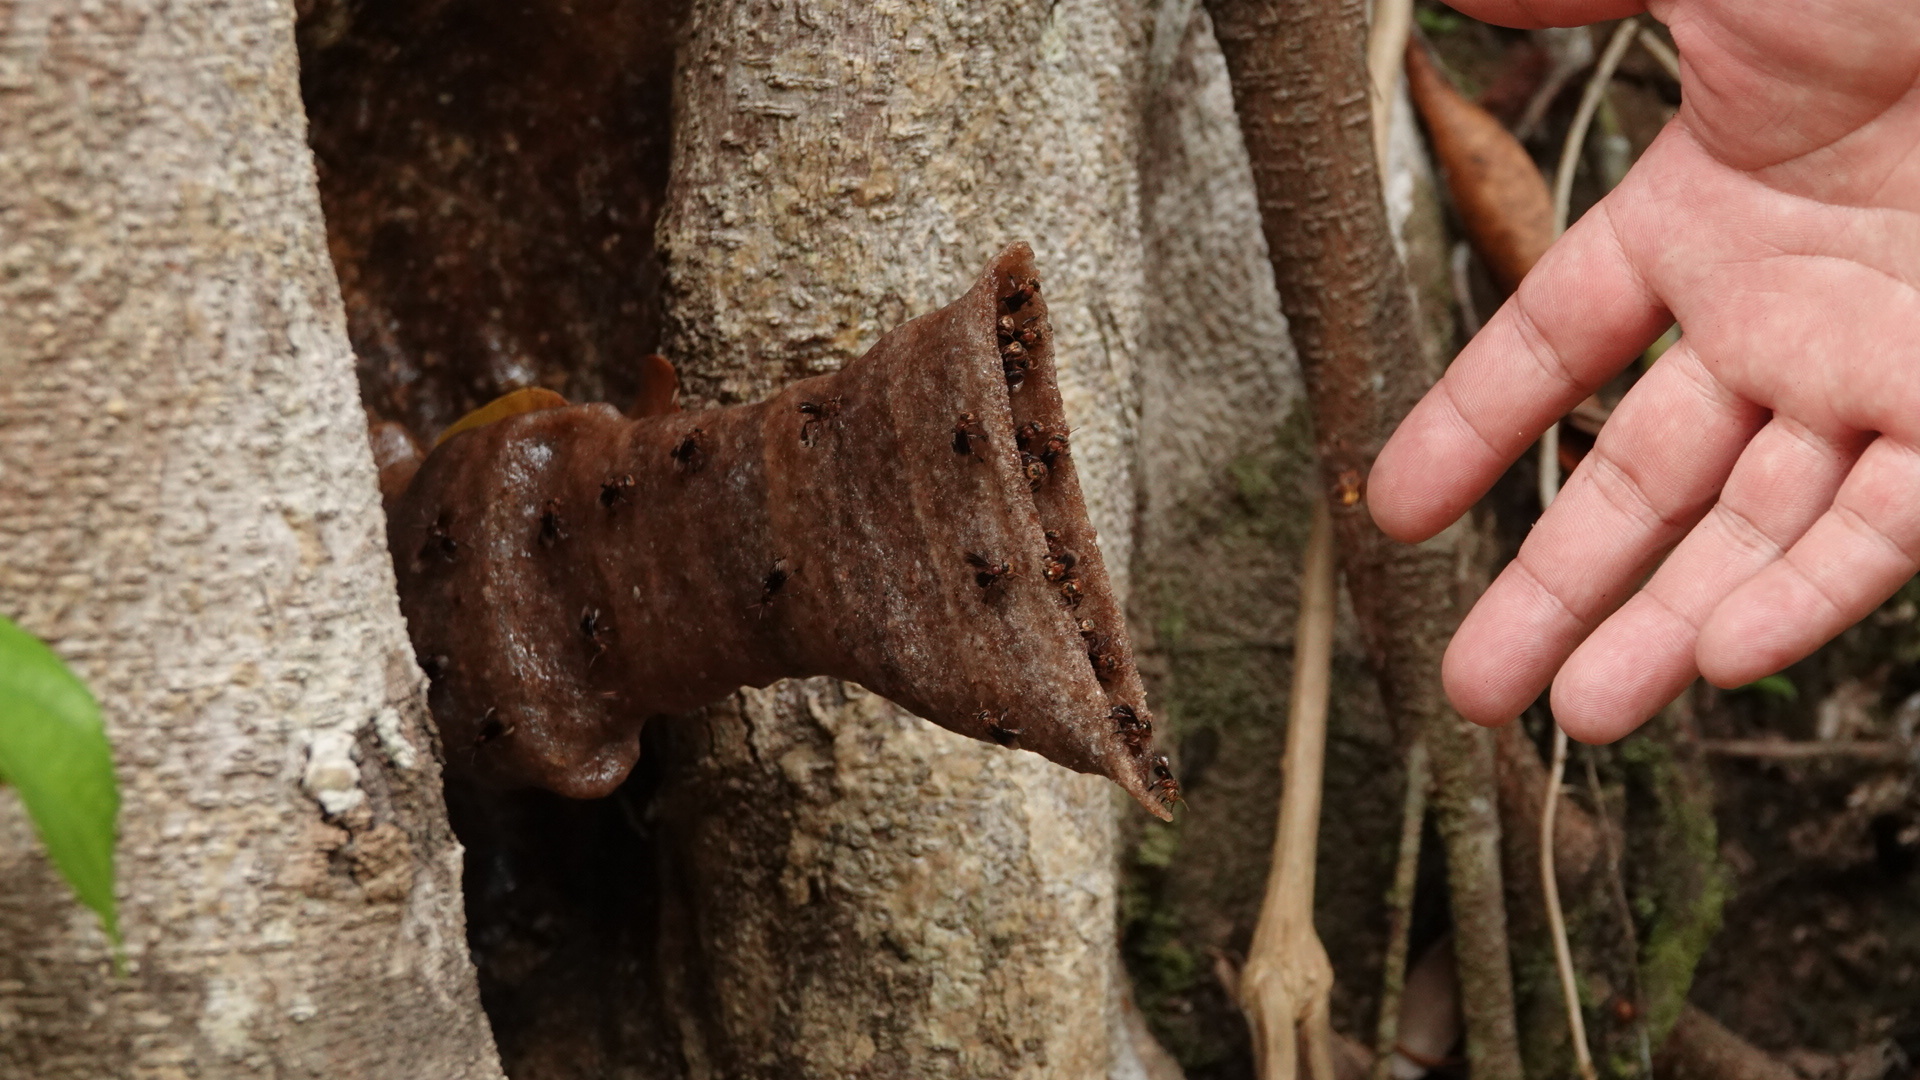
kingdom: Animalia
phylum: Arthropoda
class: Insecta
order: Hymenoptera
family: Apidae
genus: Homotrigona
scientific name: Homotrigona binghami
